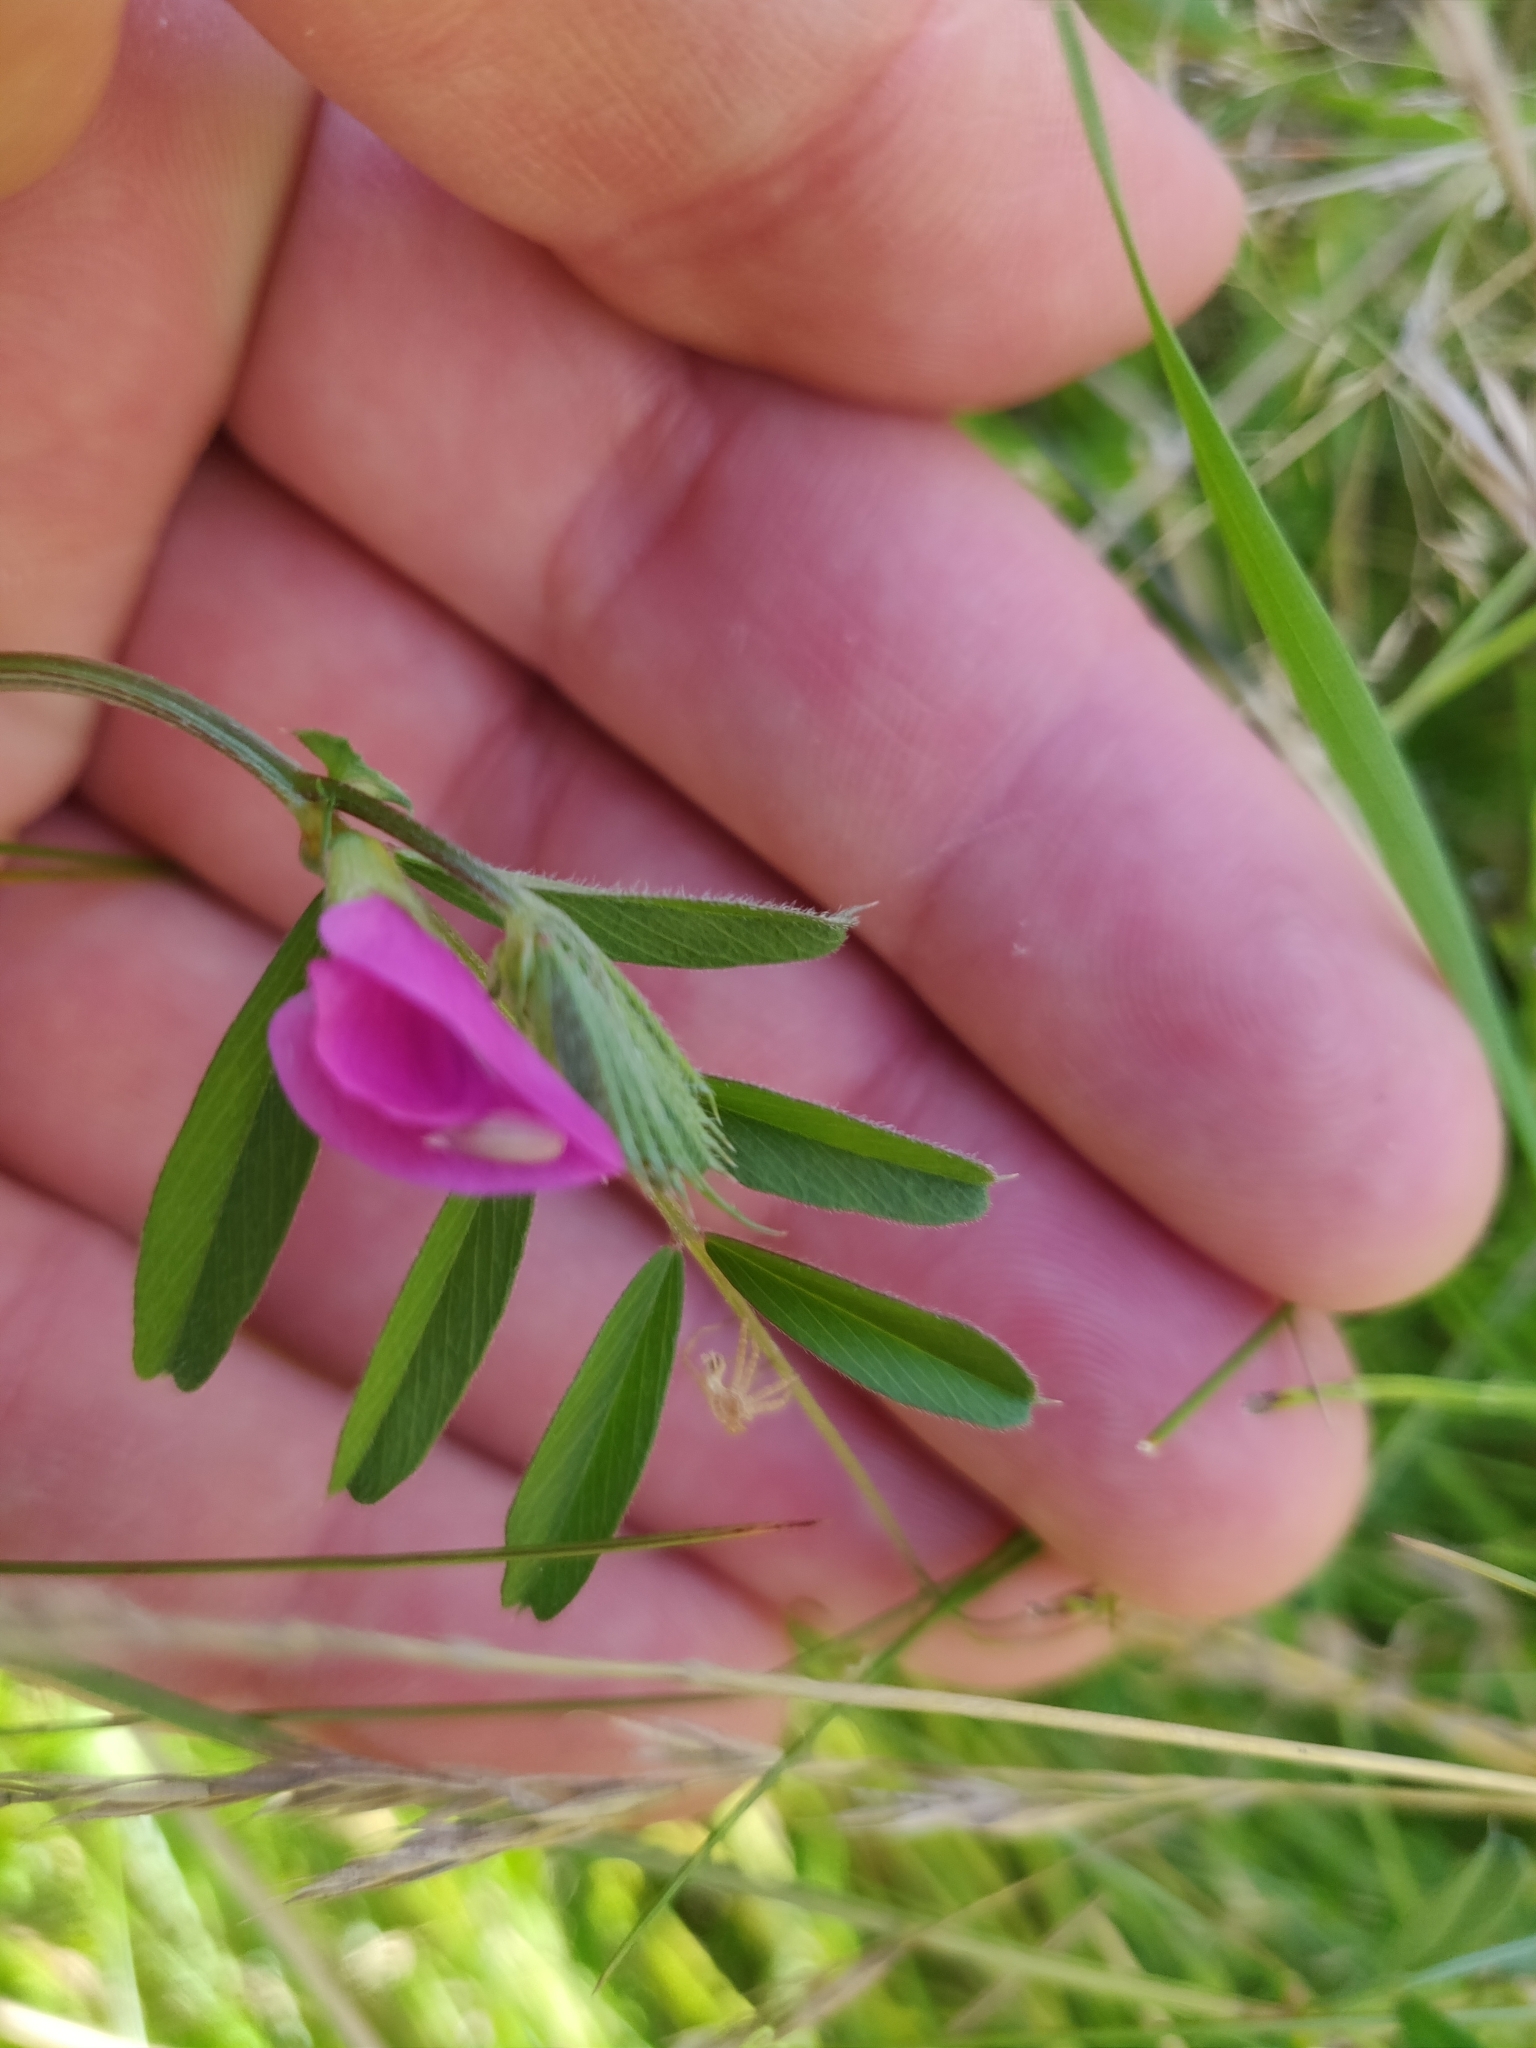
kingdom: Plantae
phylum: Tracheophyta
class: Magnoliopsida
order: Fabales
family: Fabaceae
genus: Vicia
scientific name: Vicia sativa
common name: Garden vetch
